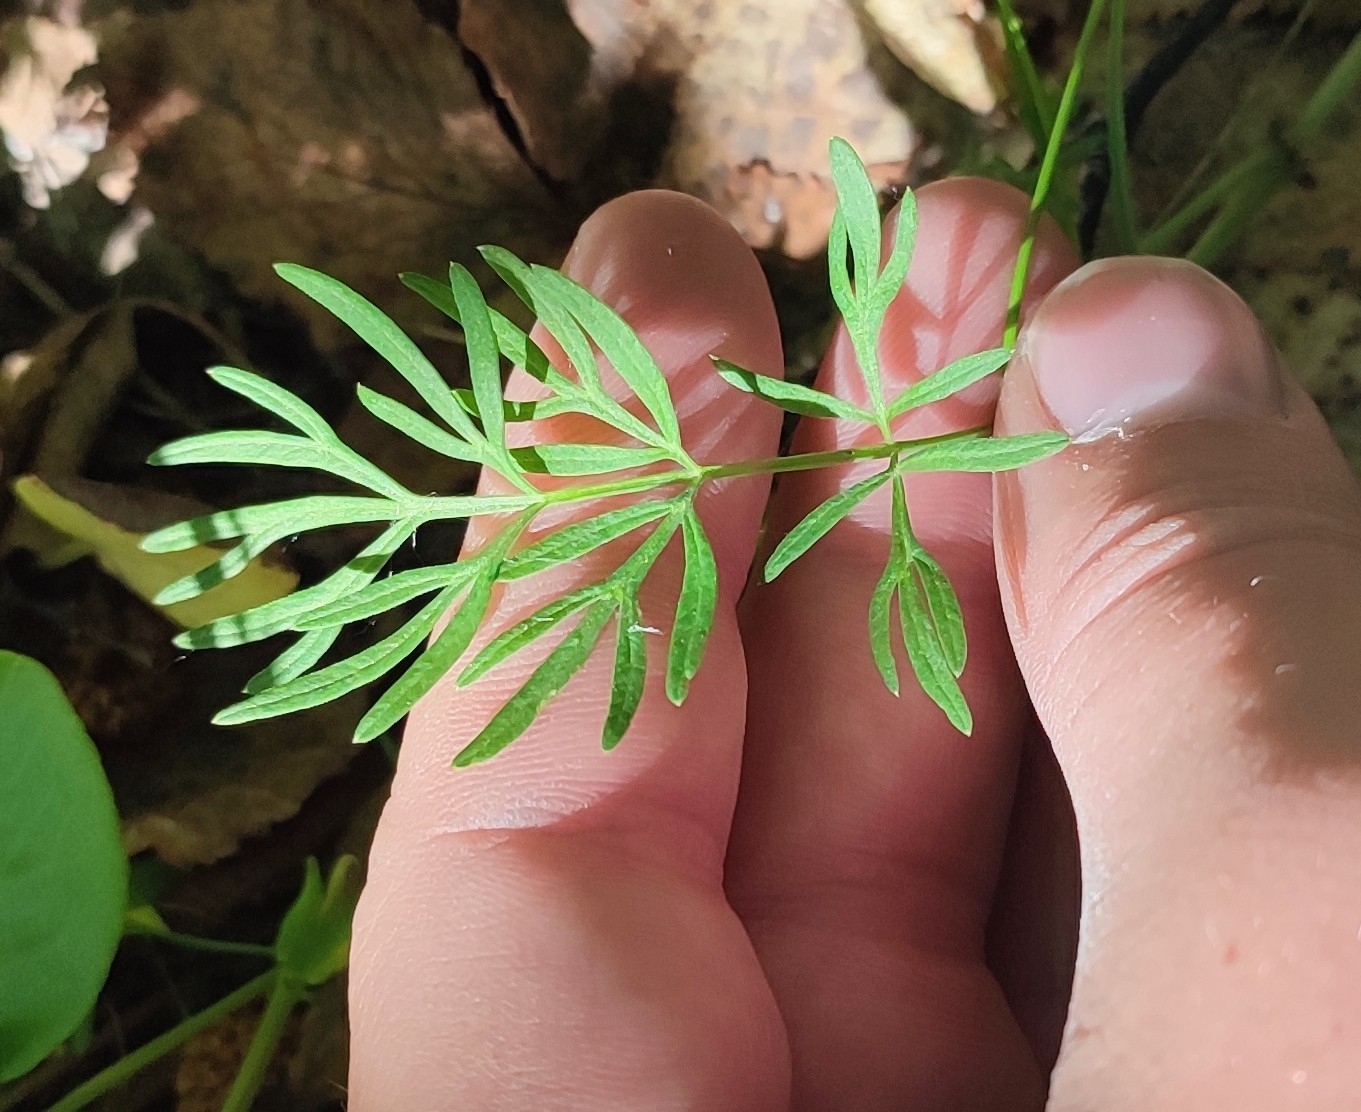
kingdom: Plantae
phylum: Tracheophyta
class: Magnoliopsida
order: Apiales
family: Apiaceae
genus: Kadenia
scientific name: Kadenia dubia
